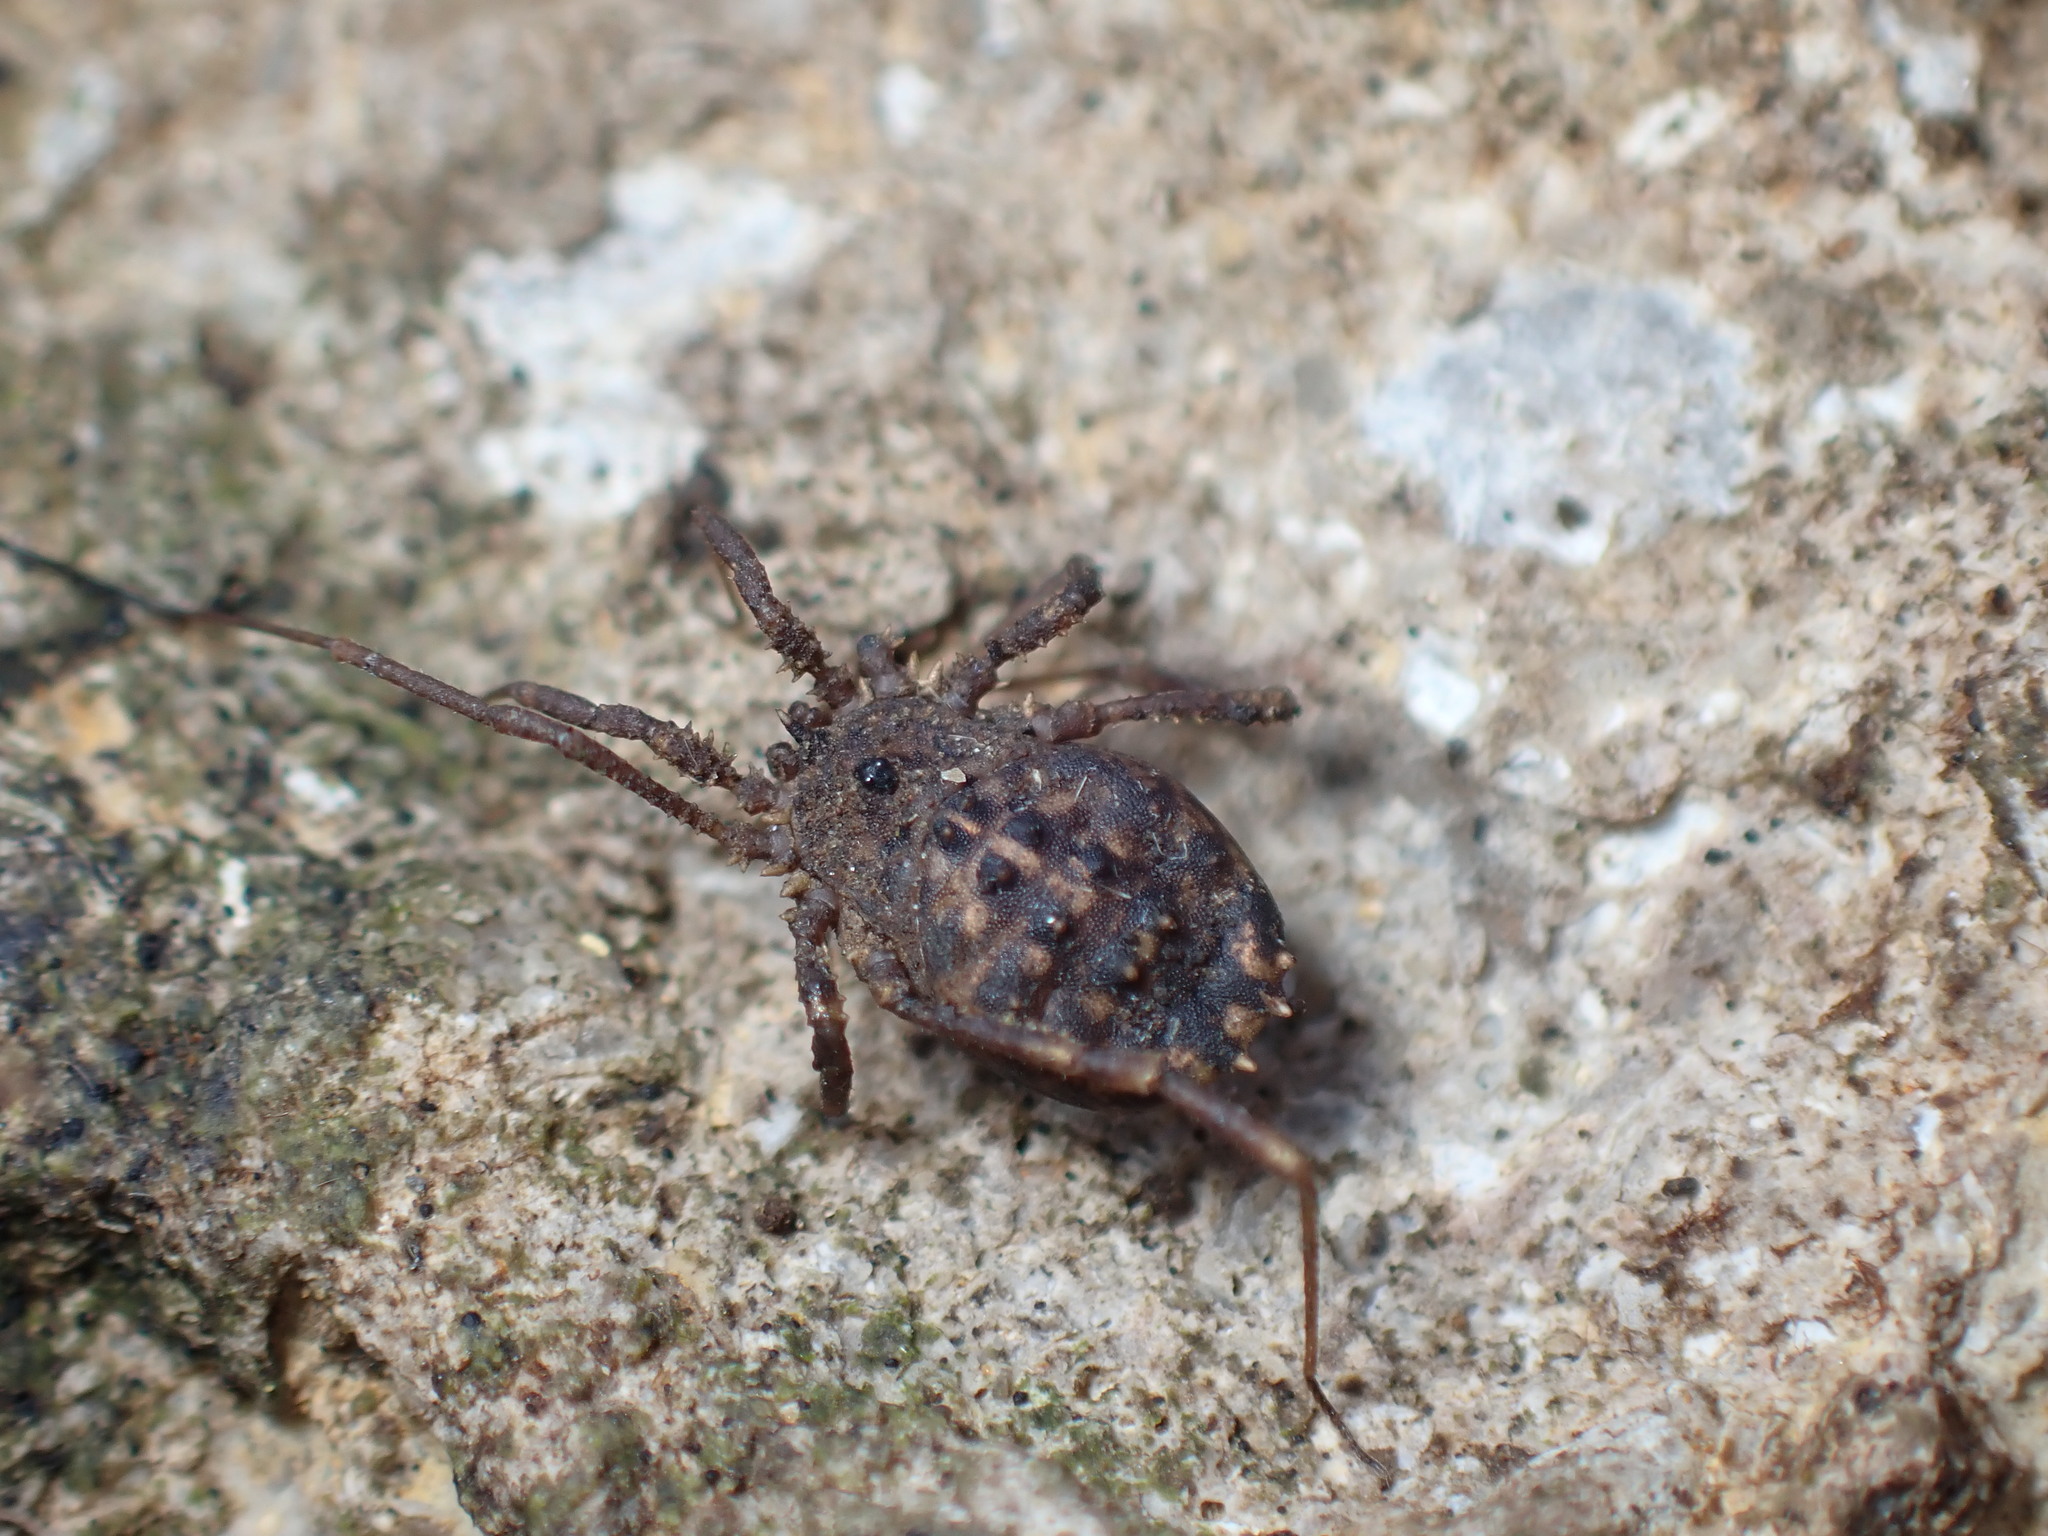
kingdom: Animalia
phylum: Arthropoda
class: Arachnida
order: Opiliones
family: Sclerosomatidae
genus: Homalenotus
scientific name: Homalenotus quadridentatus
